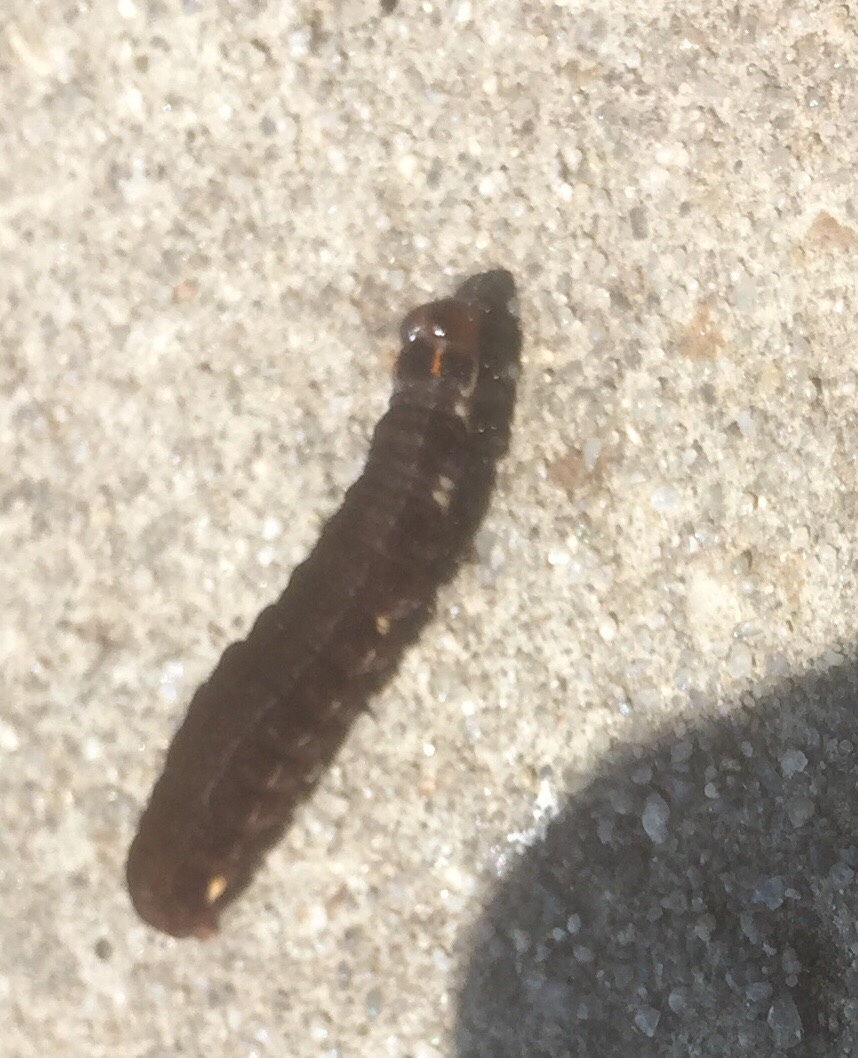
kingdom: Animalia
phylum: Arthropoda
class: Insecta
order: Lepidoptera
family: Noctuidae
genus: Eupsilia
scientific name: Eupsilia transversa
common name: Satellite
